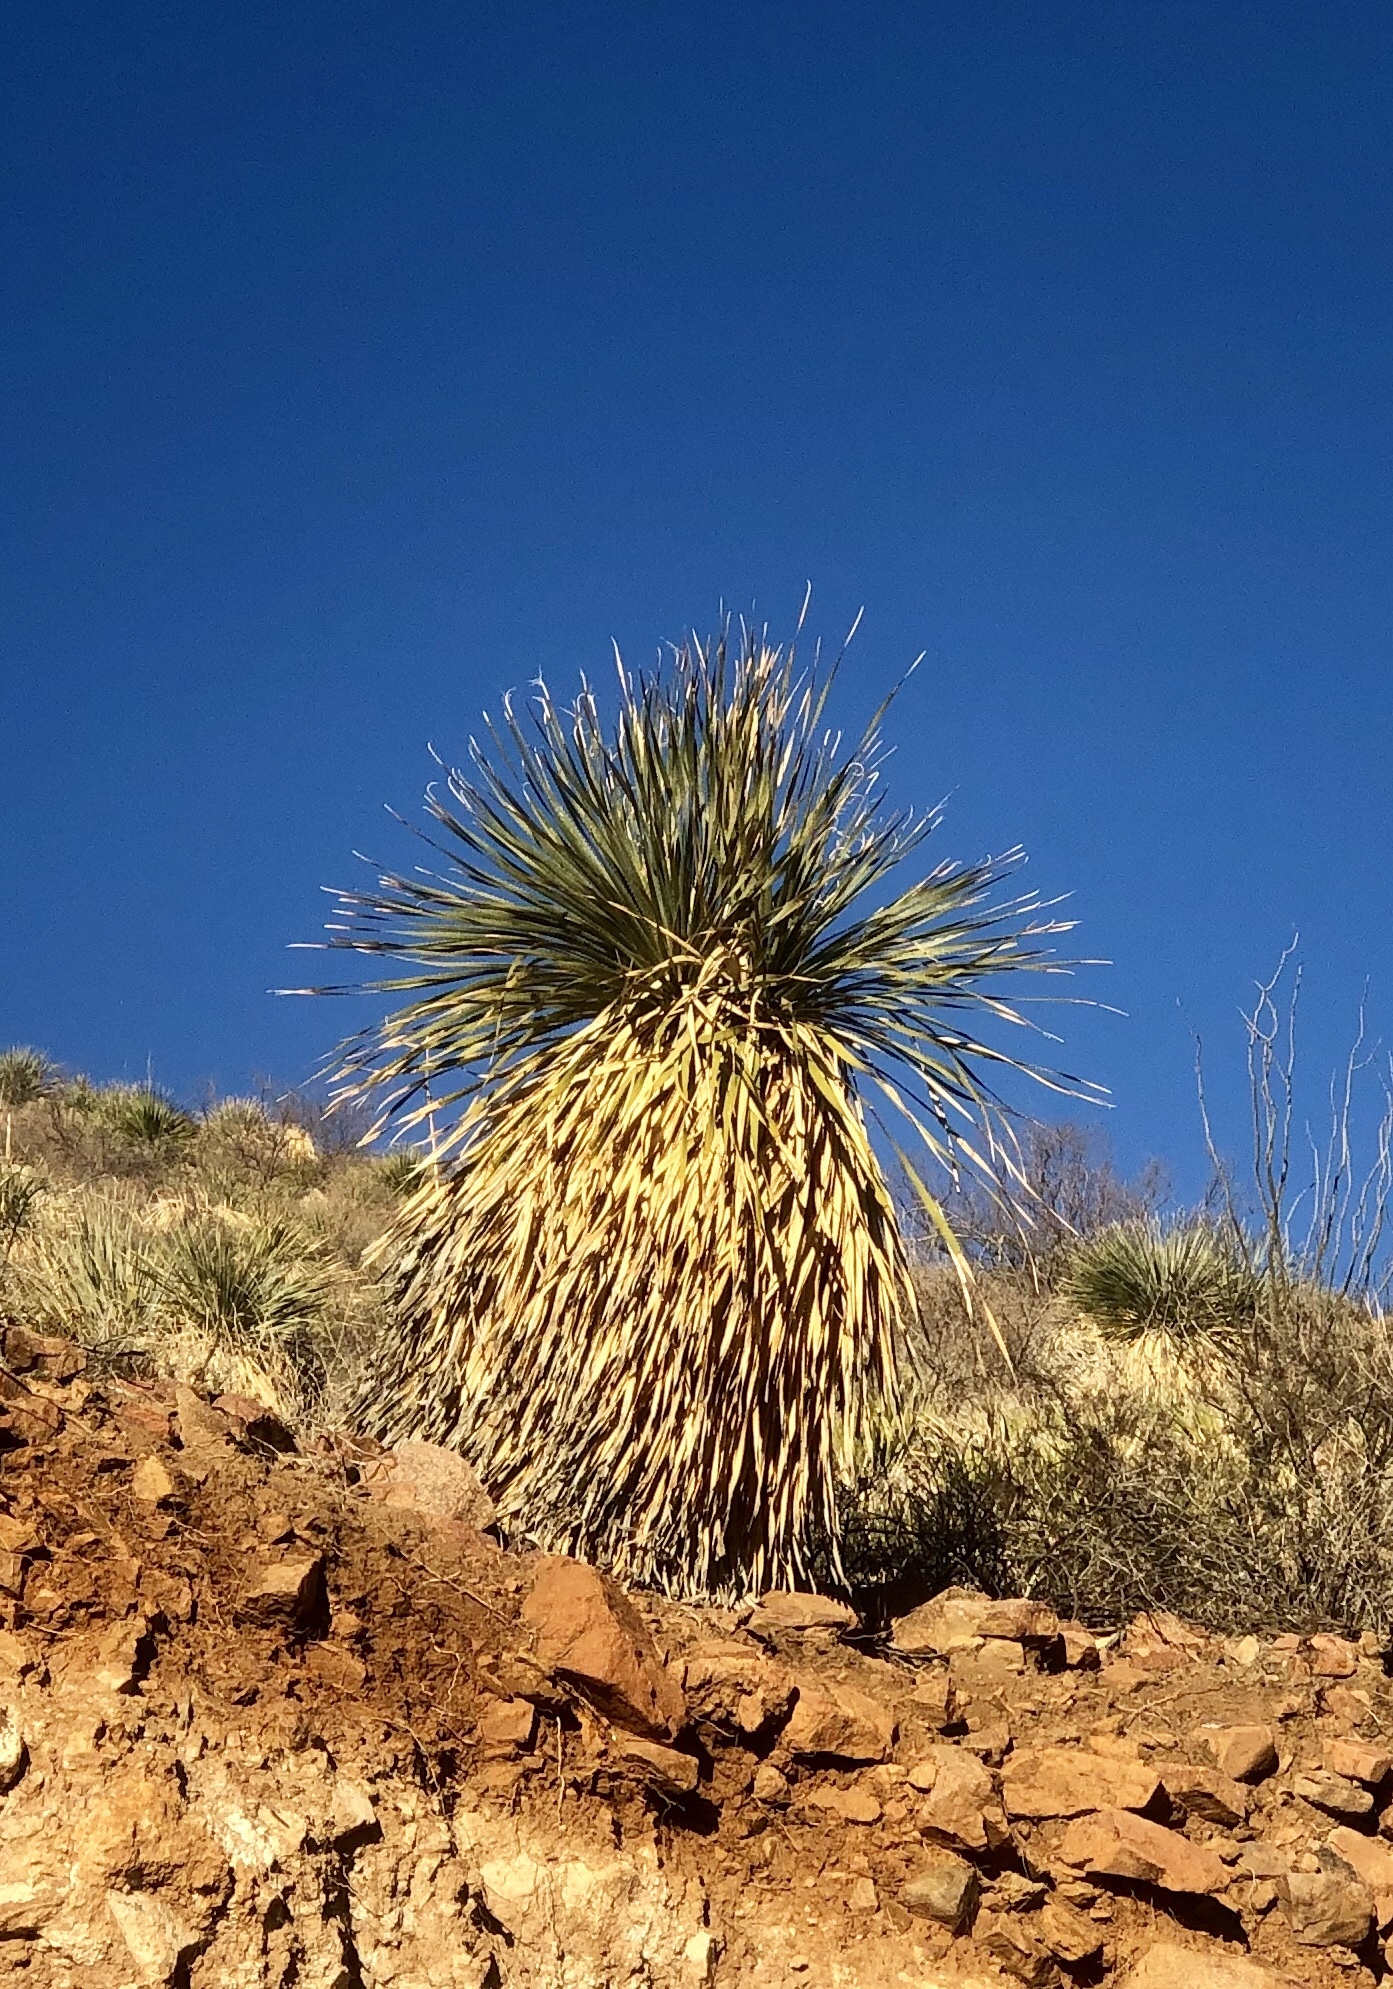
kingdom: Plantae
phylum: Tracheophyta
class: Liliopsida
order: Asparagales
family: Asparagaceae
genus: Dasylirion
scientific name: Dasylirion wheeleri
